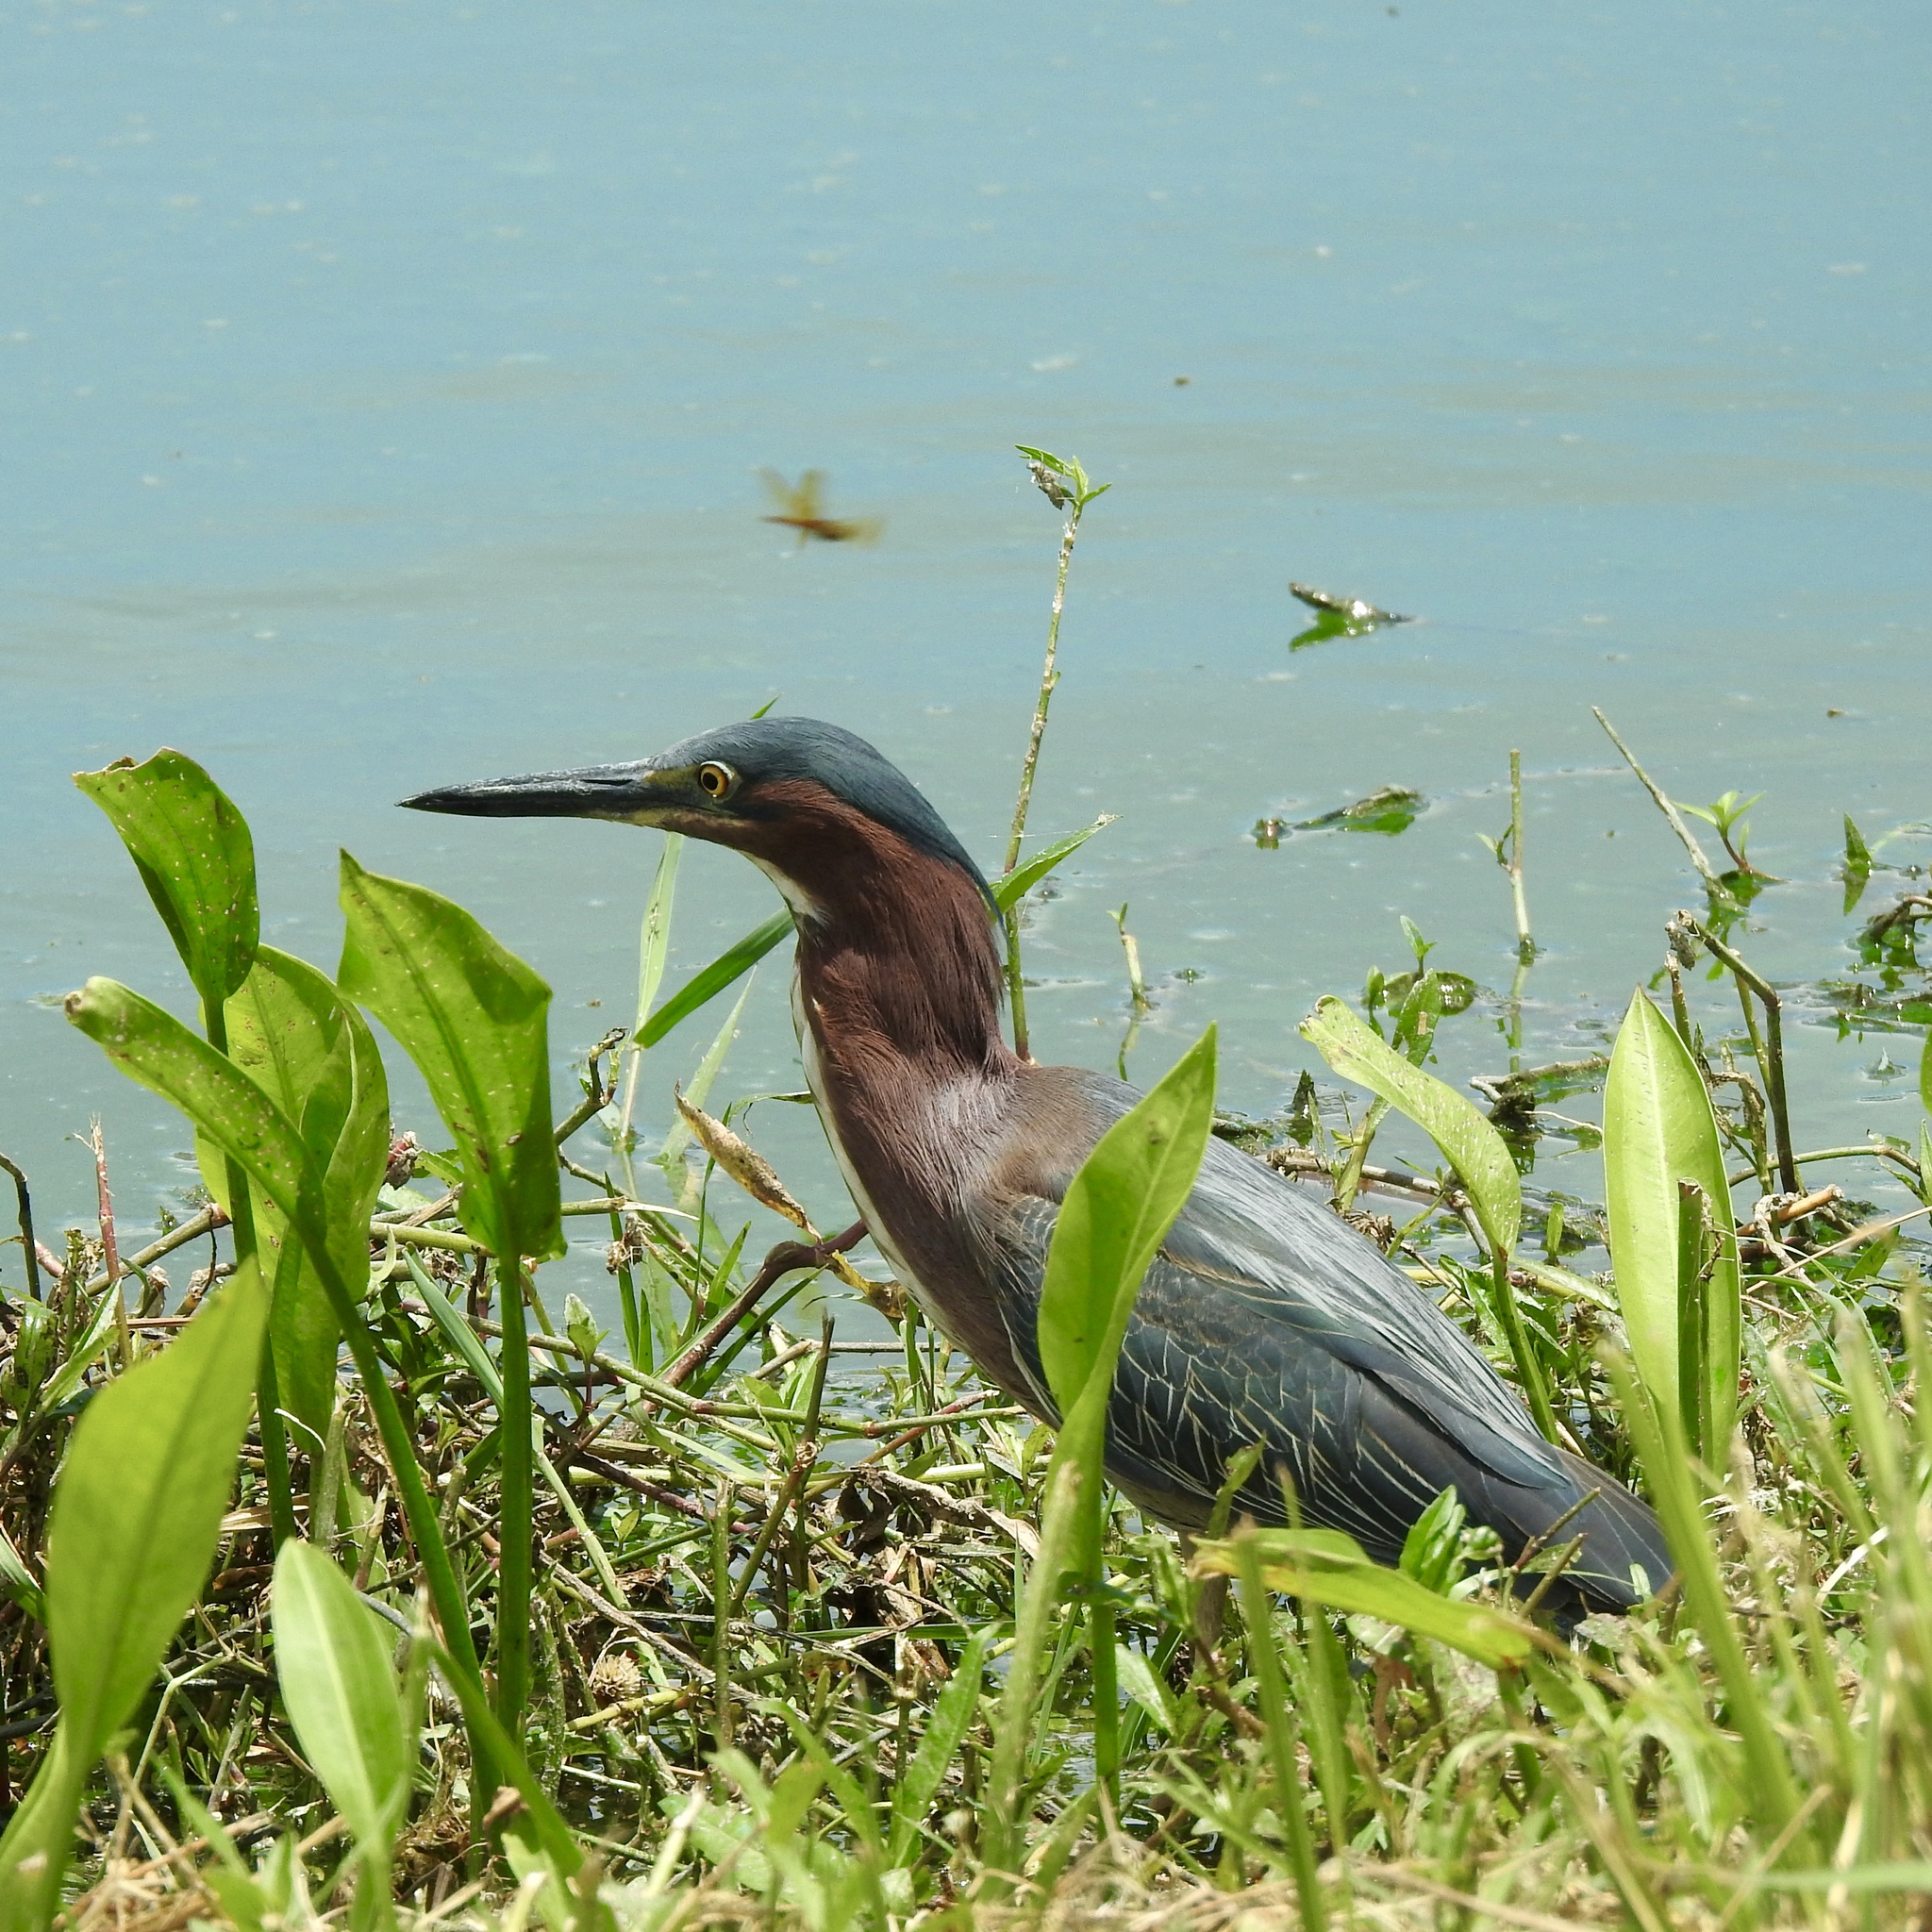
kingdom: Animalia
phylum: Chordata
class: Aves
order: Pelecaniformes
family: Ardeidae
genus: Butorides
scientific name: Butorides virescens
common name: Green heron
